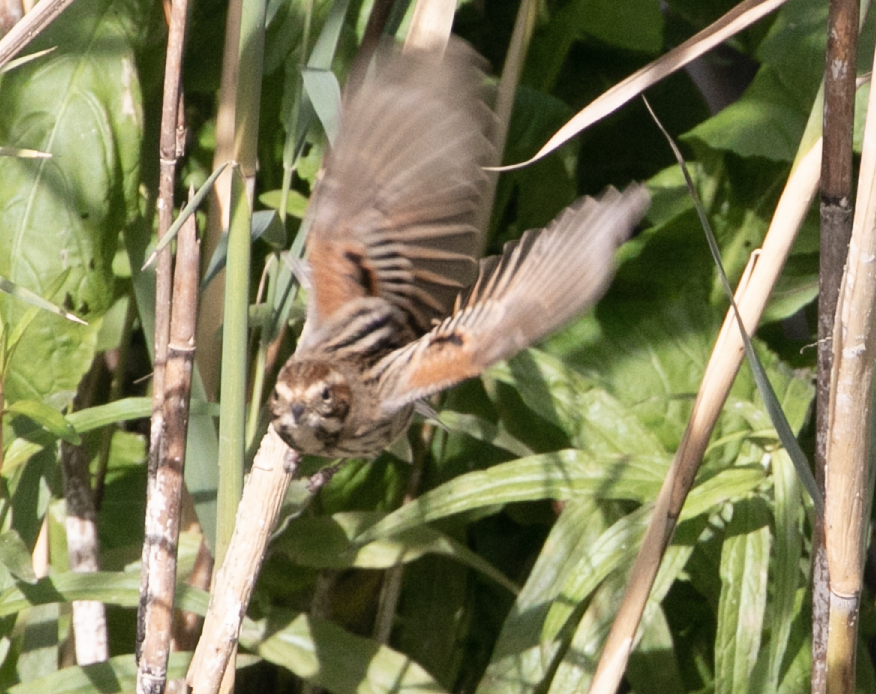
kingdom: Animalia
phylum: Chordata
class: Aves
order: Passeriformes
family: Emberizidae
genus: Emberiza
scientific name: Emberiza schoeniclus
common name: Reed bunting
